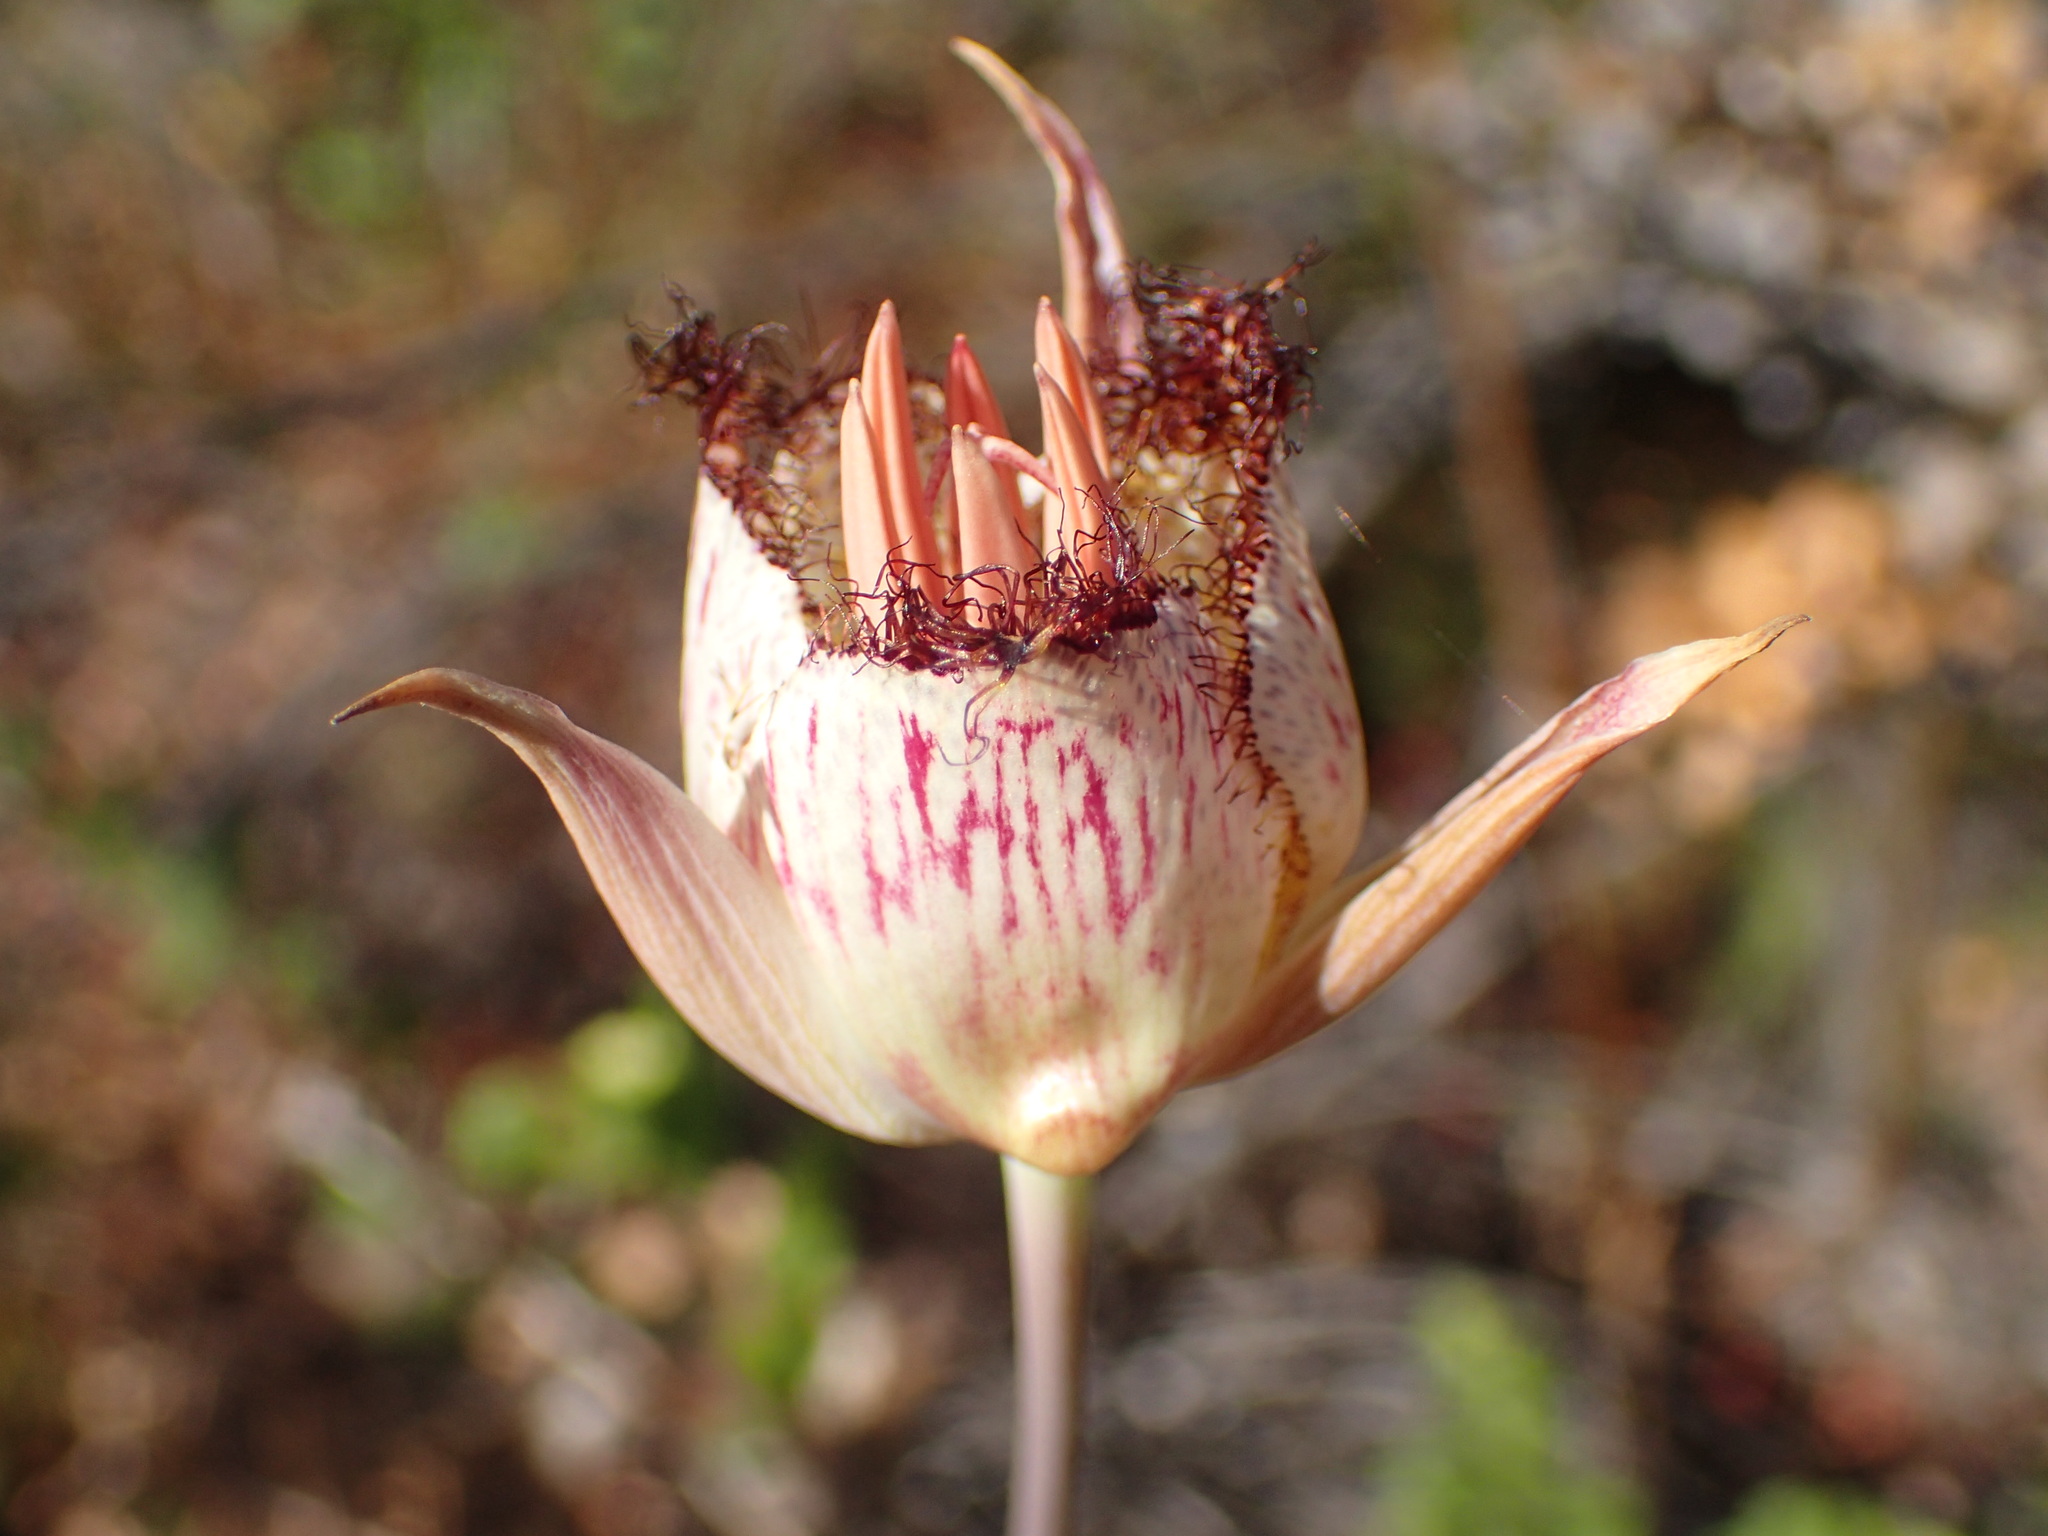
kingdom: Plantae
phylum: Tracheophyta
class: Liliopsida
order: Liliales
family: Liliaceae
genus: Calochortus
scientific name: Calochortus fimbriatus
